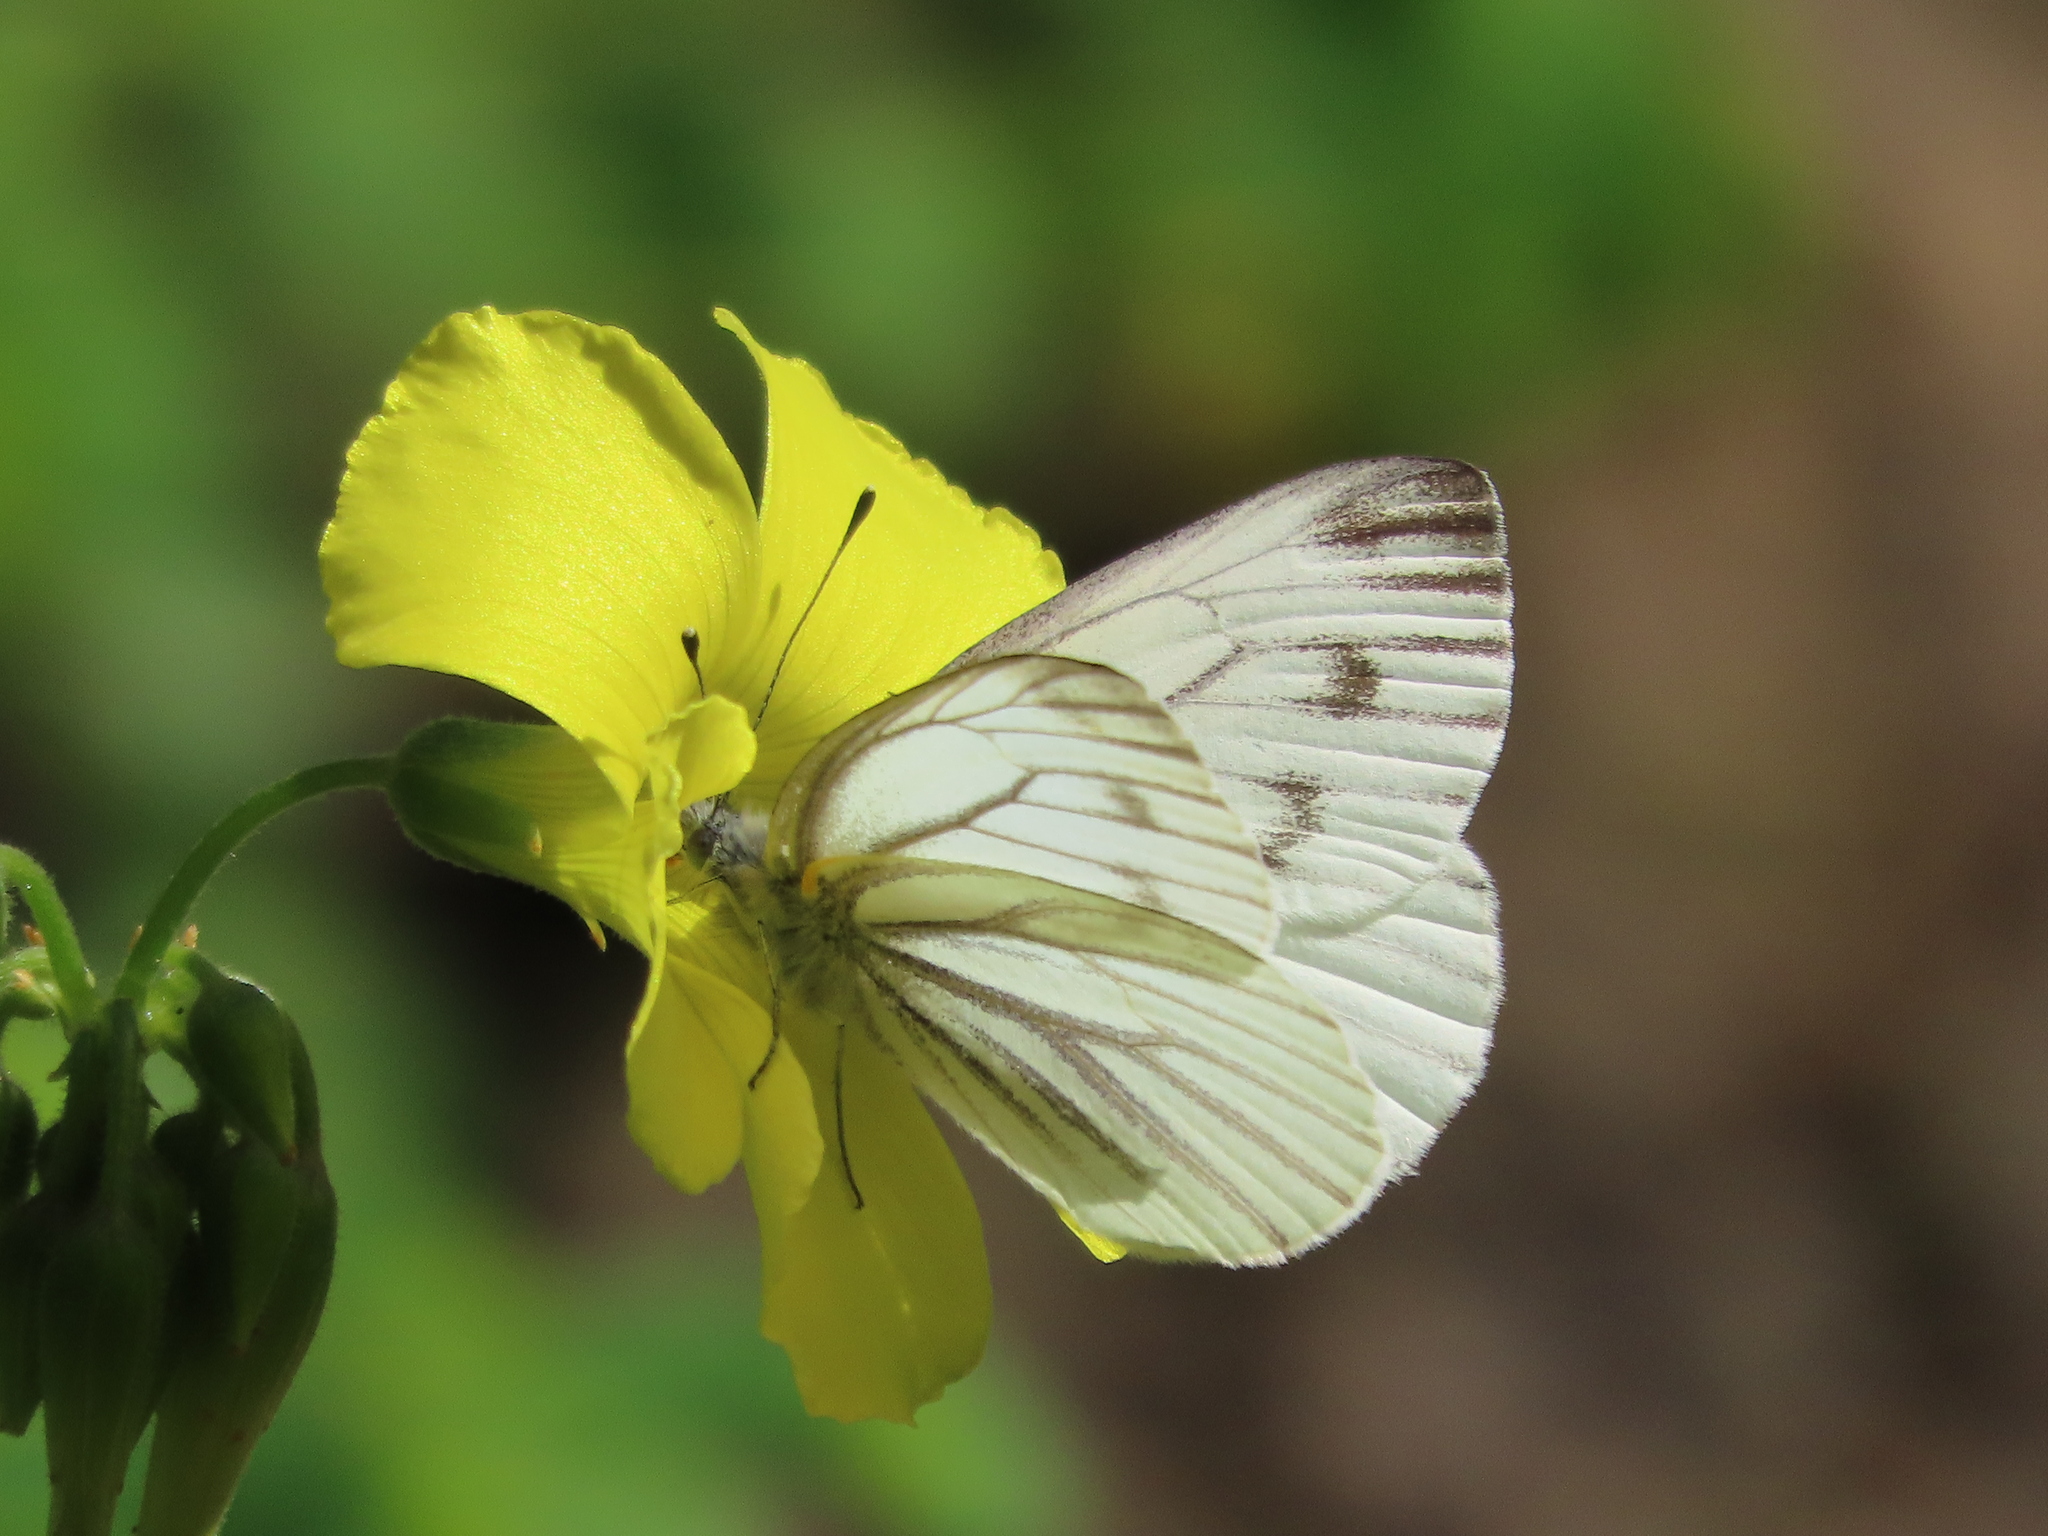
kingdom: Animalia
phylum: Arthropoda
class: Insecta
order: Lepidoptera
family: Pieridae
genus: Pieris
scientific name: Pieris marginalis
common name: Margined white
